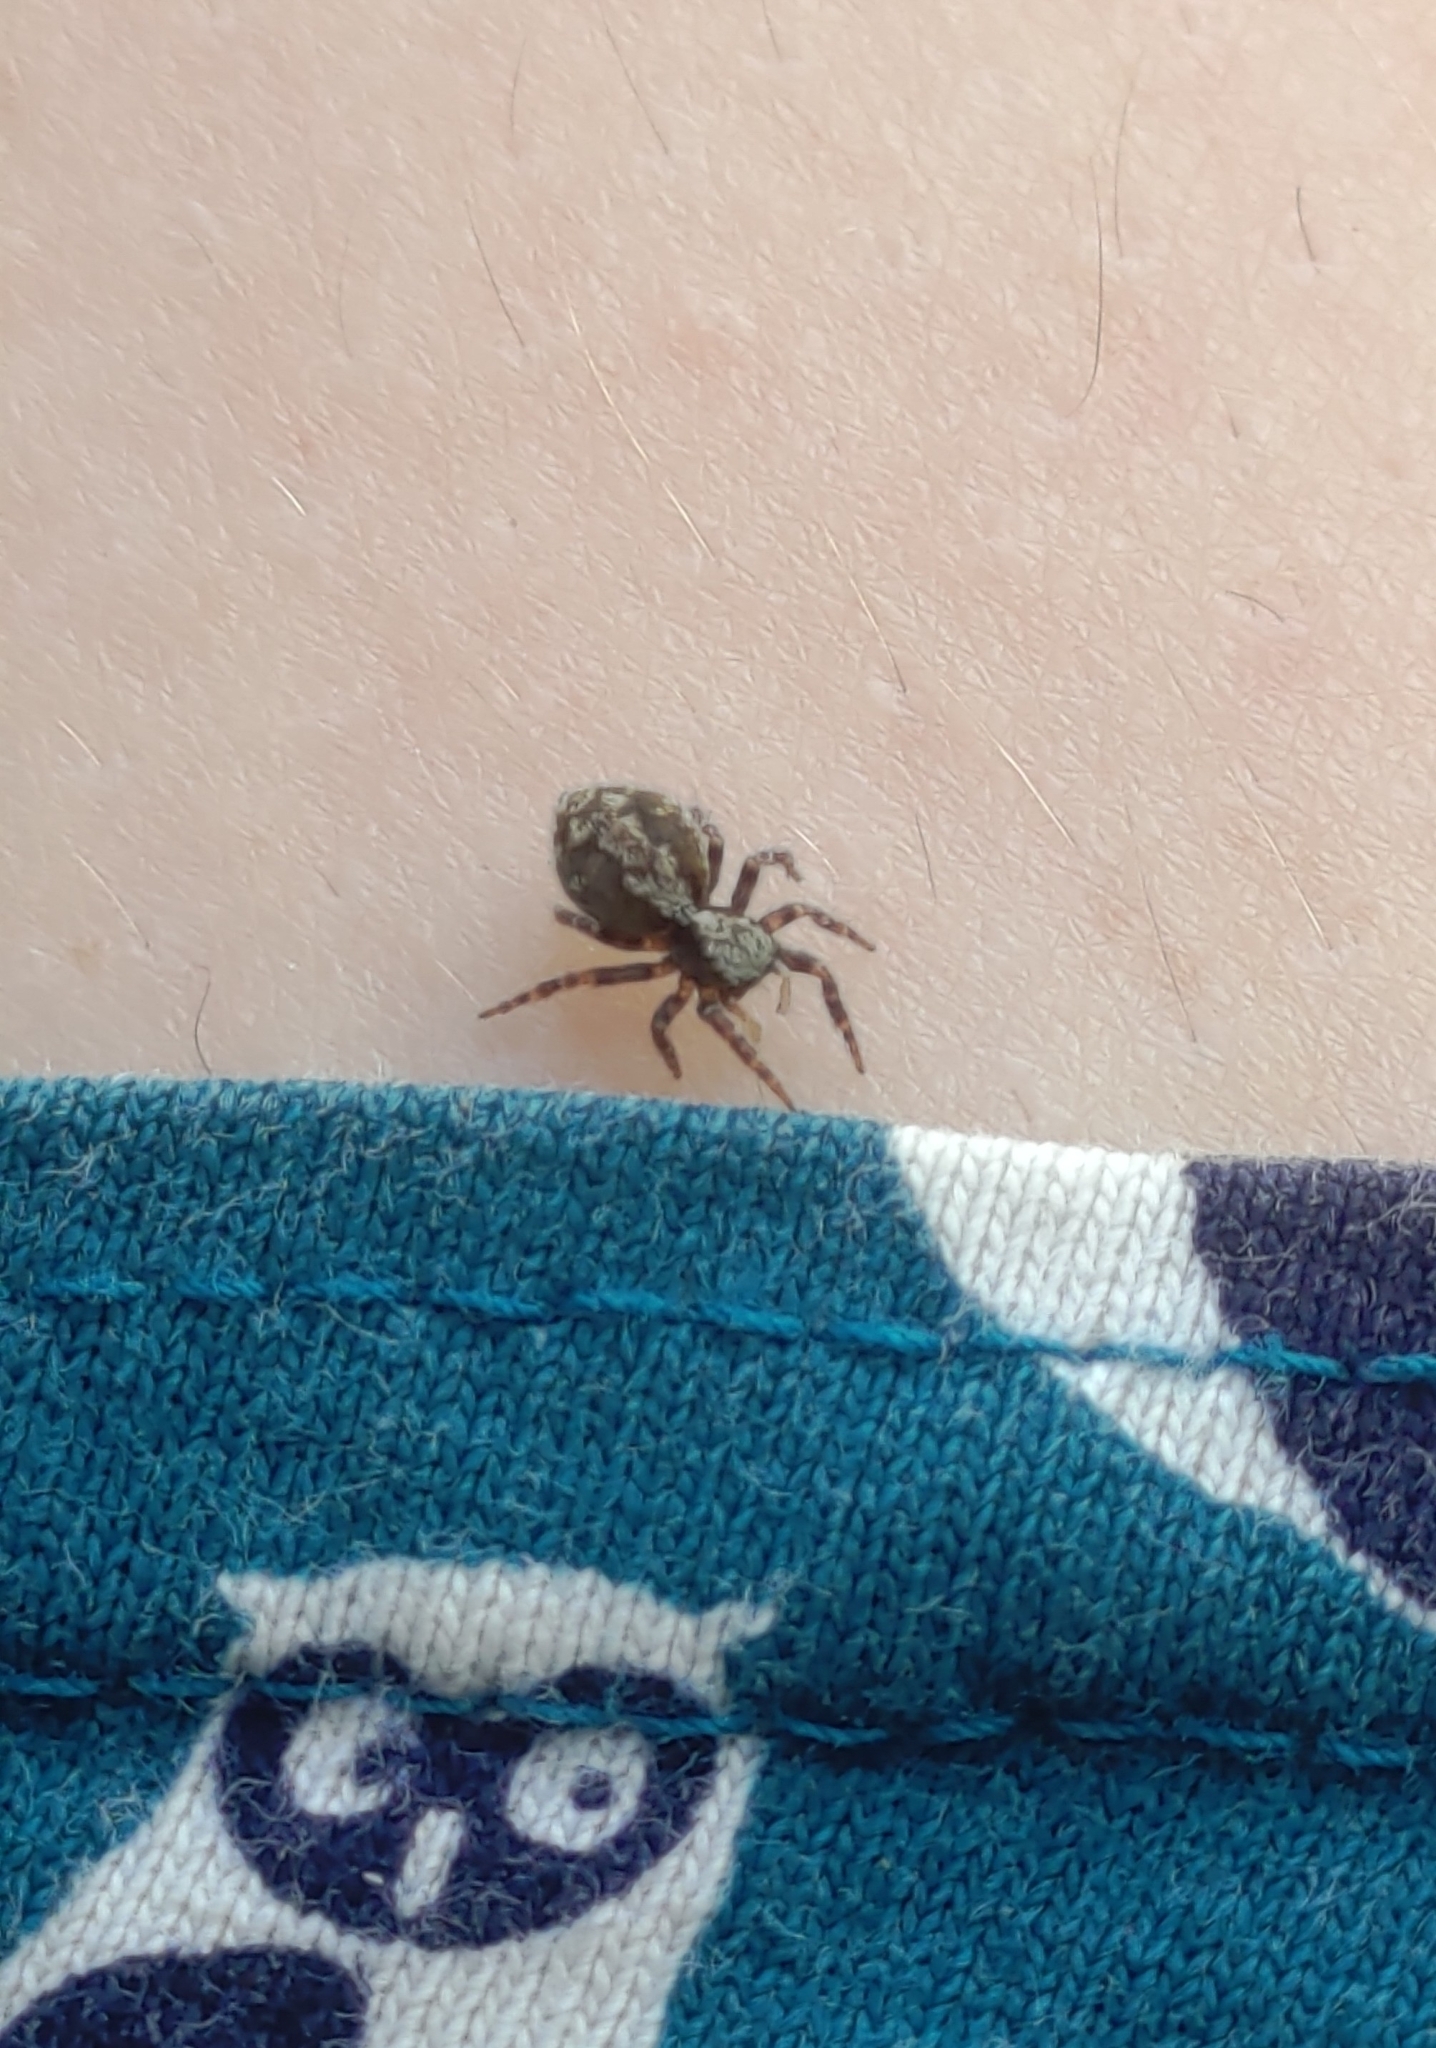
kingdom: Animalia
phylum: Arthropoda
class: Arachnida
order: Araneae
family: Salticidae
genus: Pseudeuophrys
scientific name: Pseudeuophrys lanigera
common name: Jumping spider
